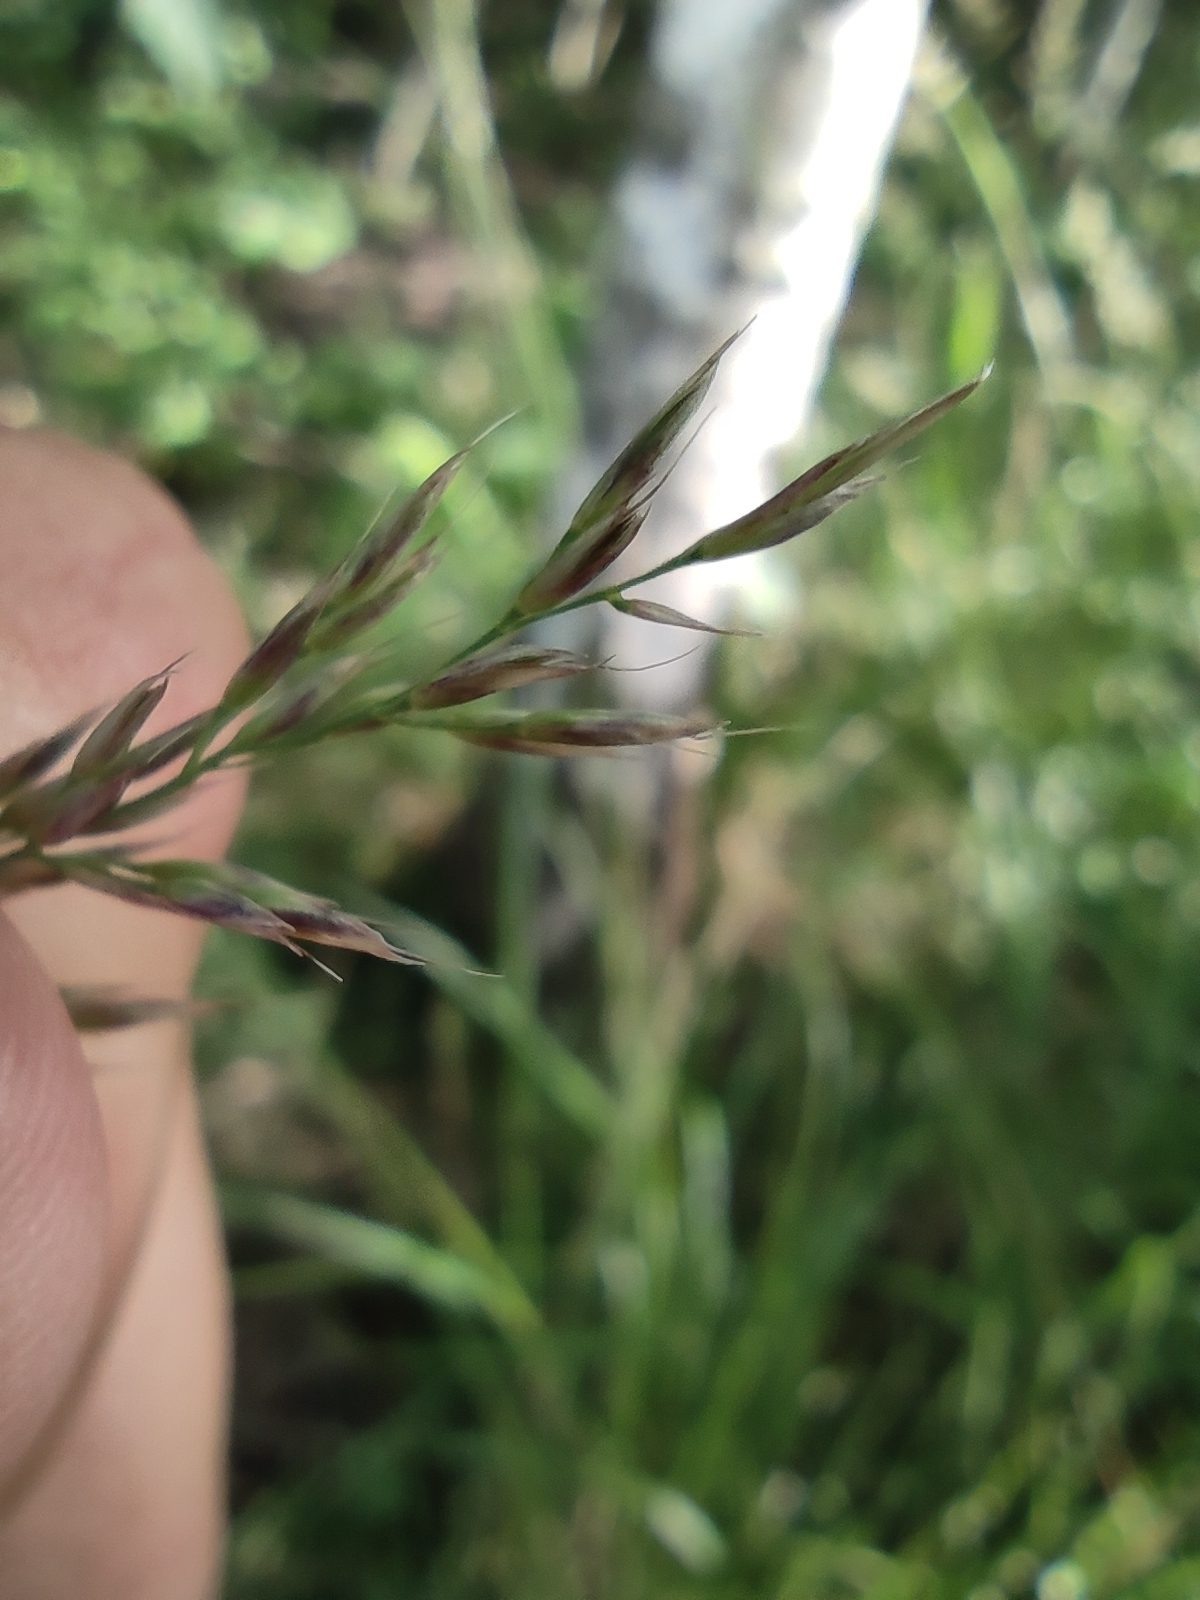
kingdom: Plantae
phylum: Tracheophyta
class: Liliopsida
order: Poales
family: Poaceae
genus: Calamagrostis
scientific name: Calamagrostis arundinacea
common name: Metskastik
